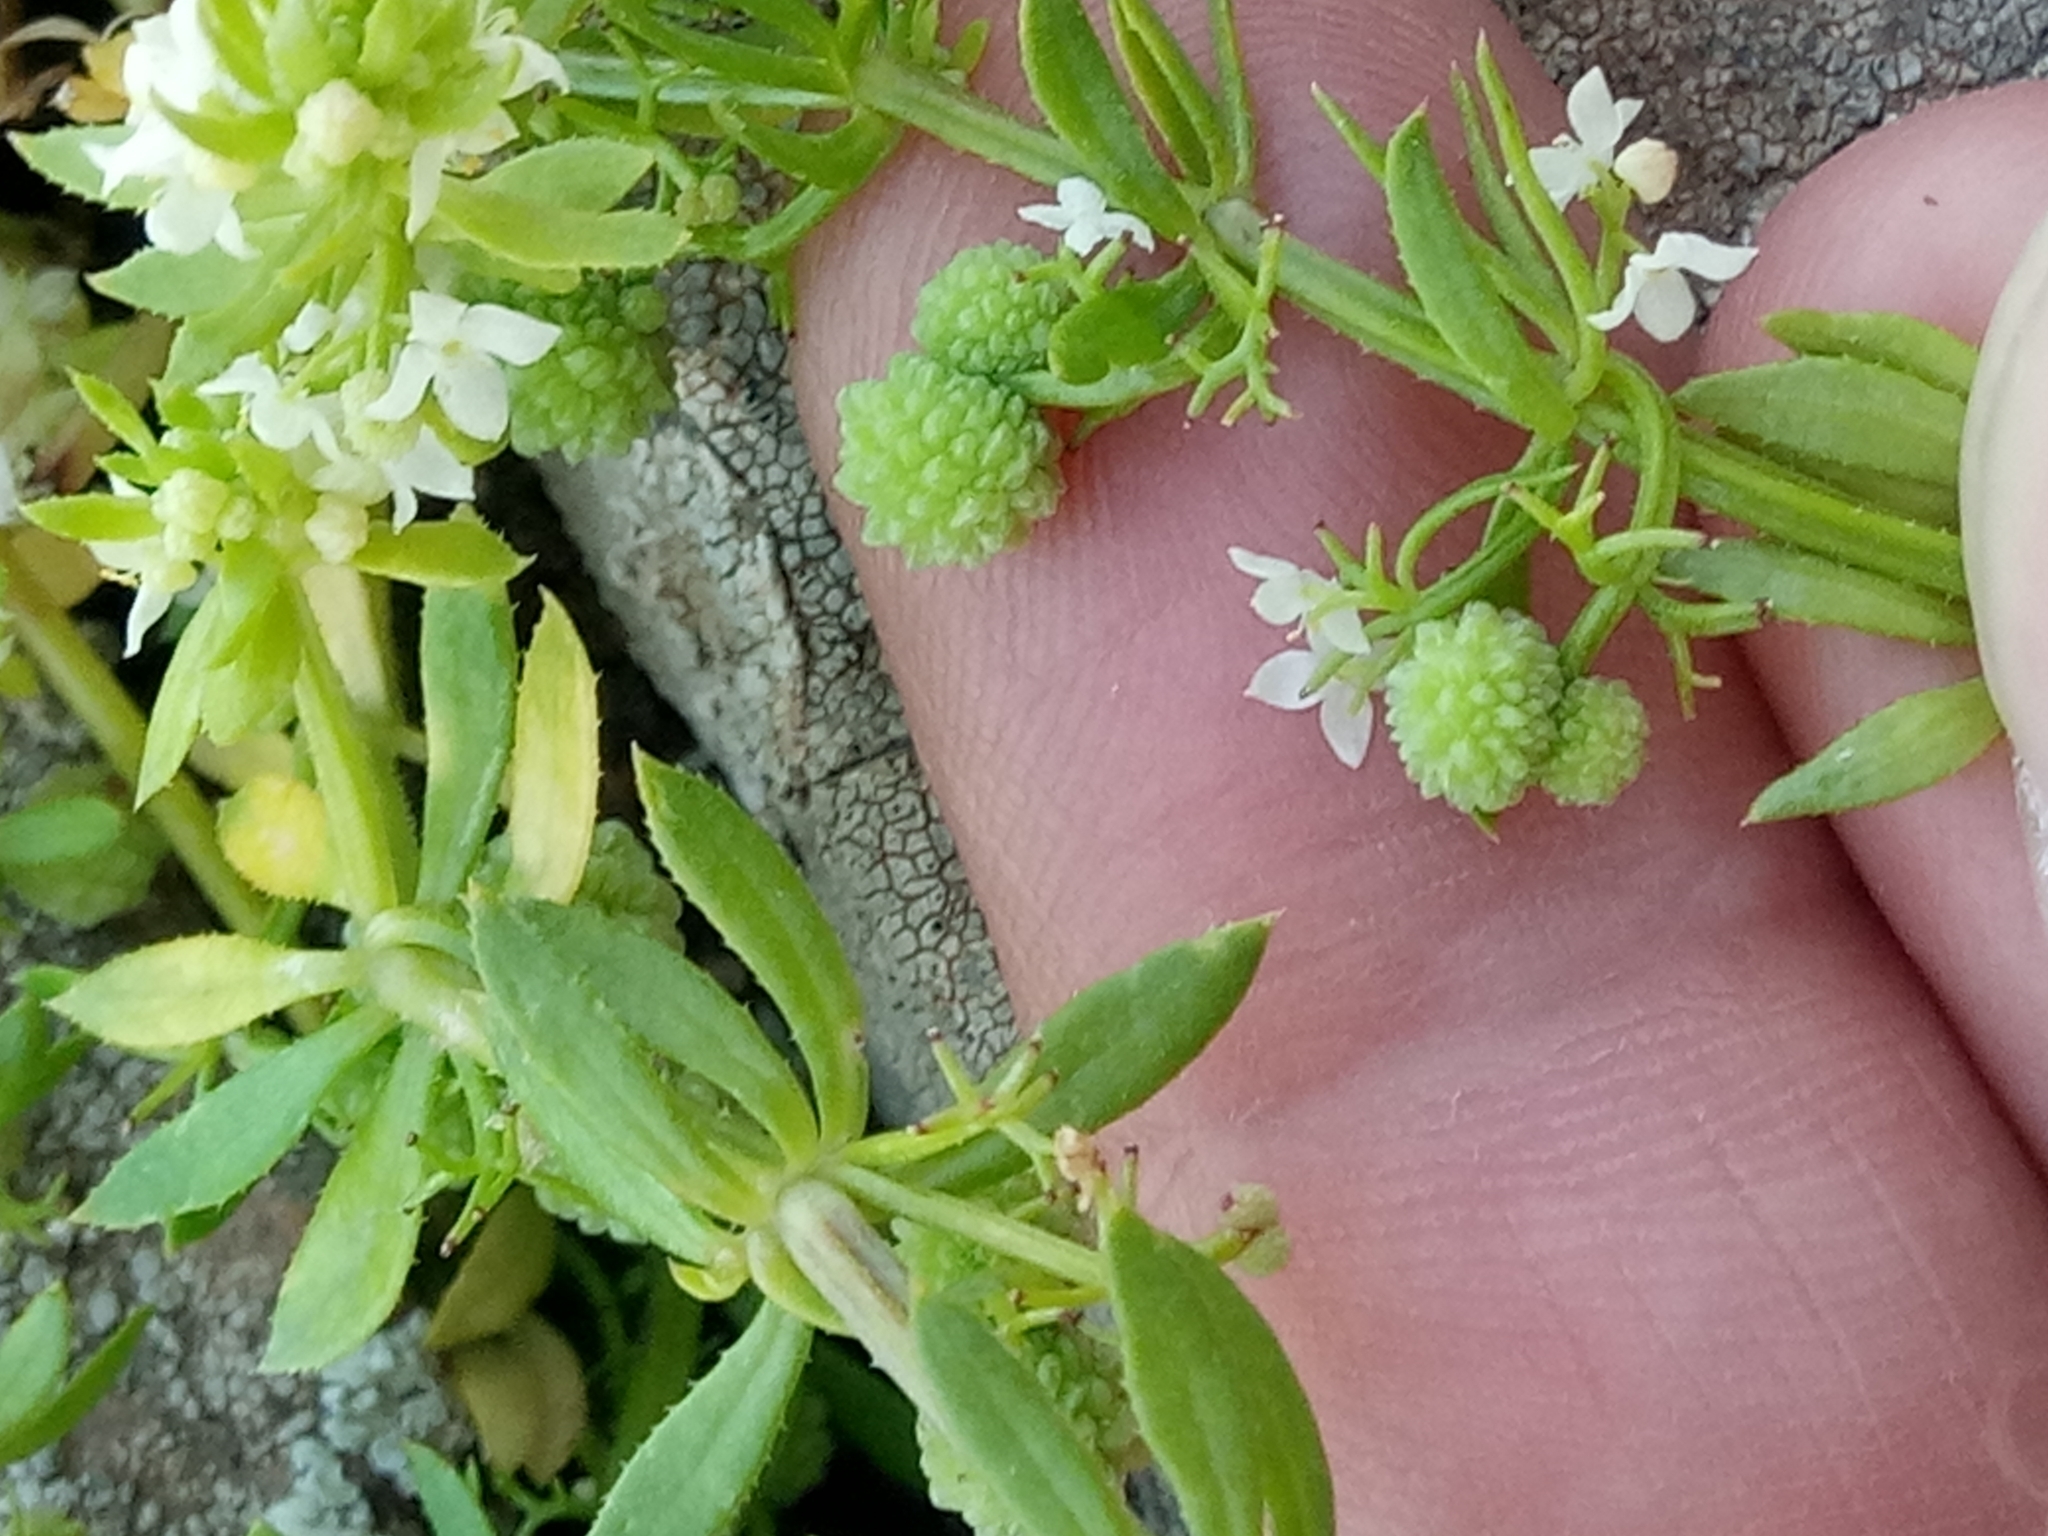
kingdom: Plantae
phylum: Tracheophyta
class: Magnoliopsida
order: Gentianales
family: Rubiaceae
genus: Galium
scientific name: Galium verrucosum
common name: Warty bedstraw
